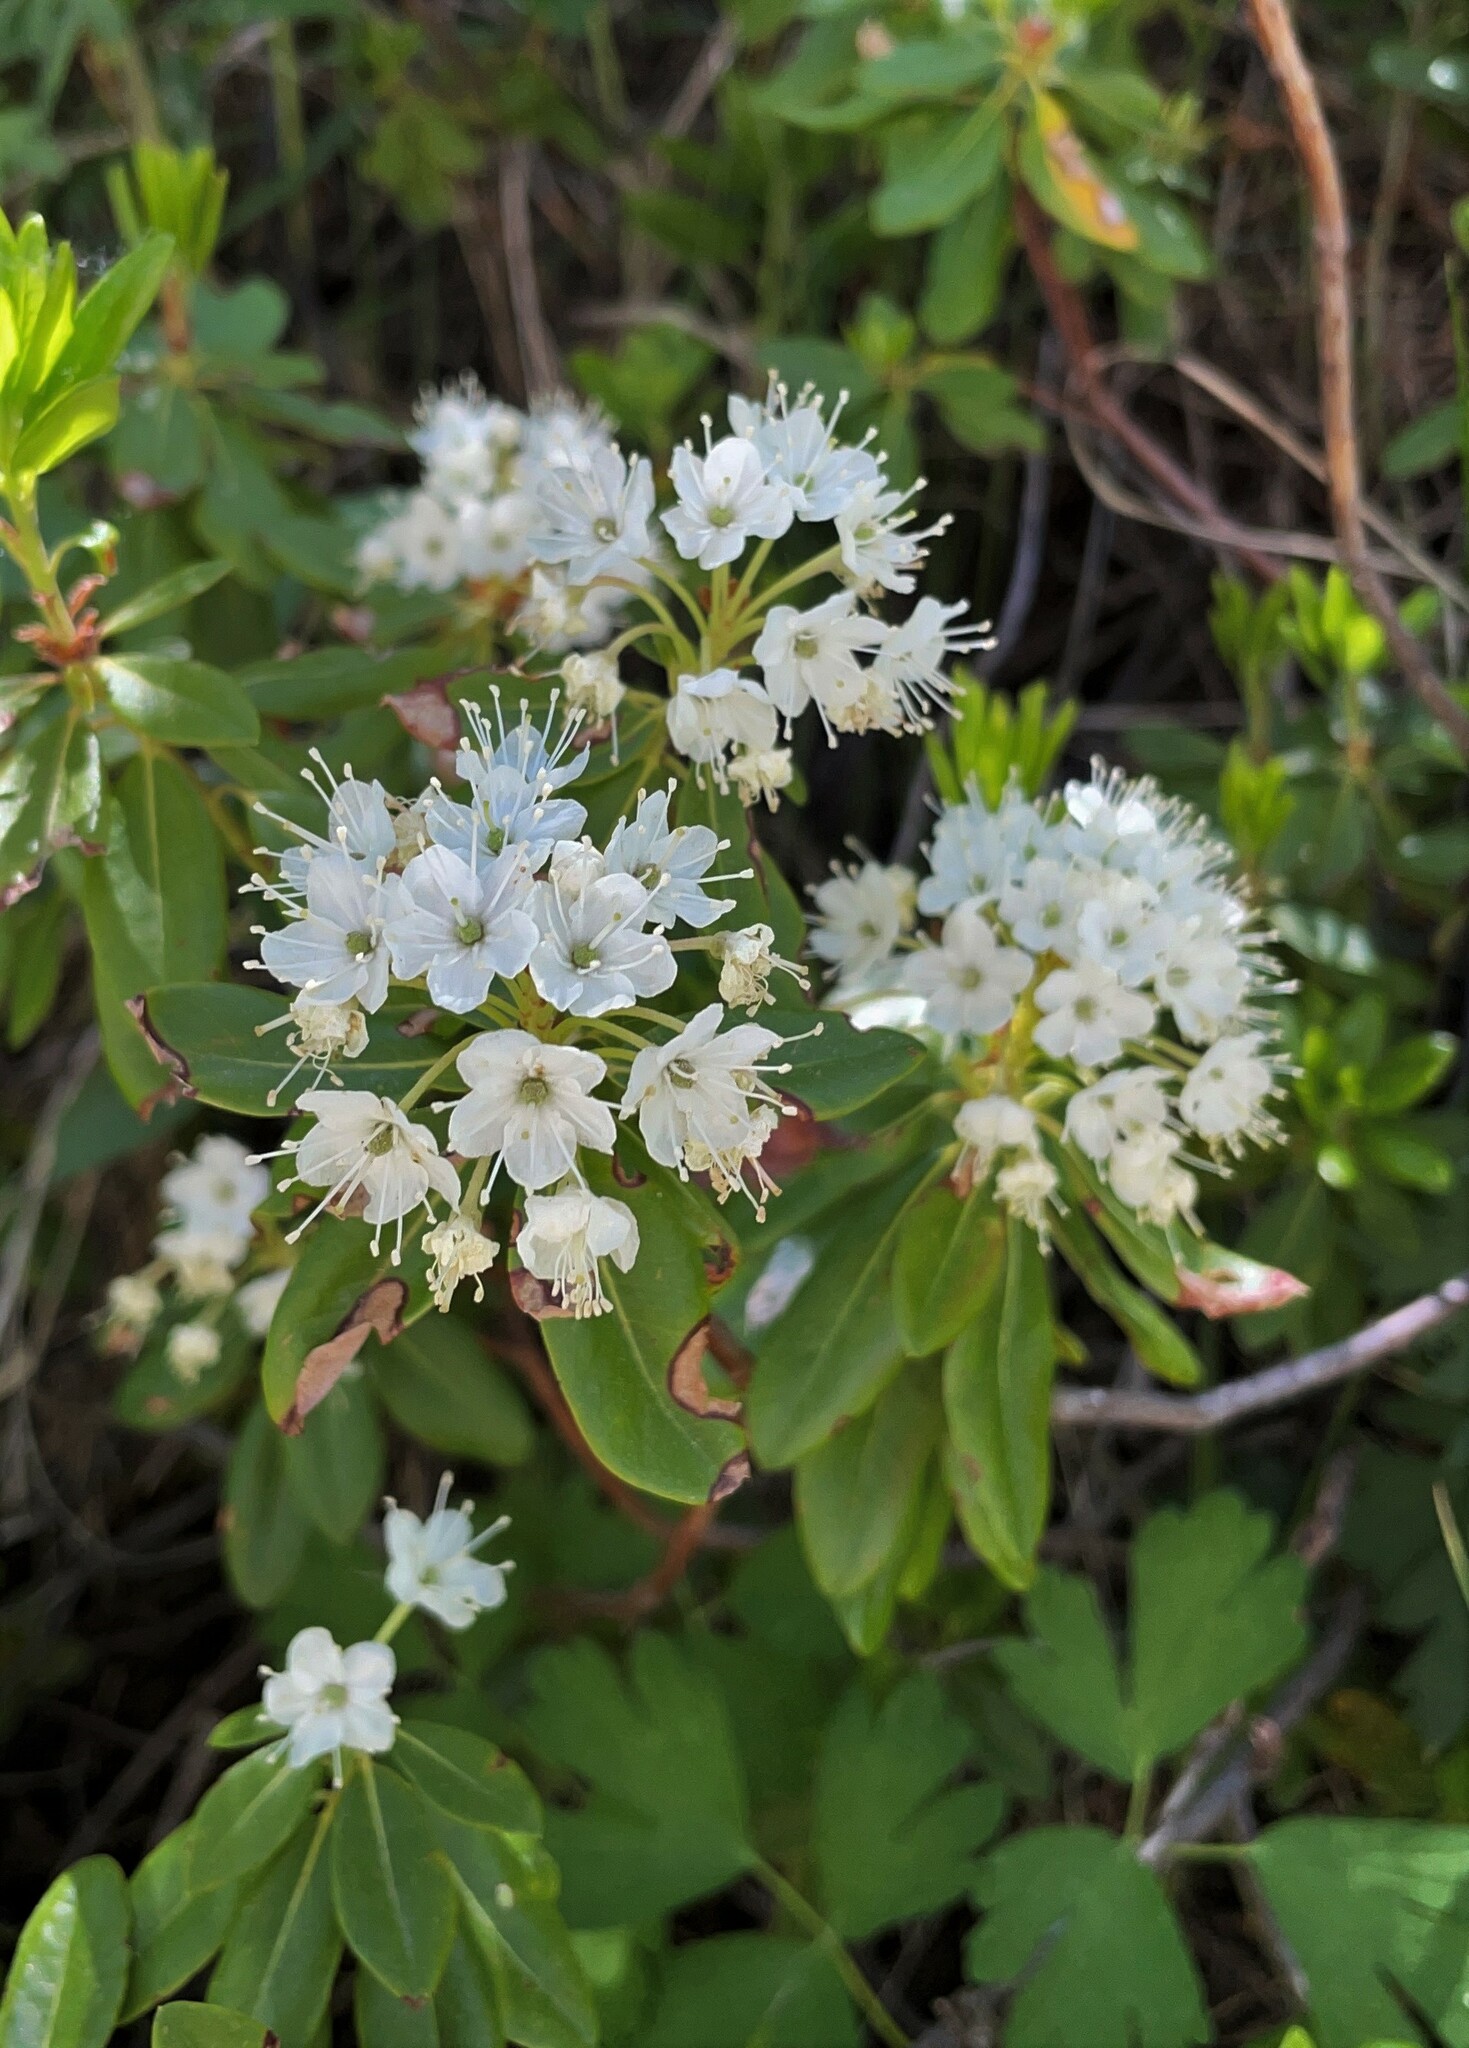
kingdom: Plantae
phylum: Tracheophyta
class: Magnoliopsida
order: Ericales
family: Ericaceae
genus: Rhododendron
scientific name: Rhododendron columbianum
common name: Western labrador tea
